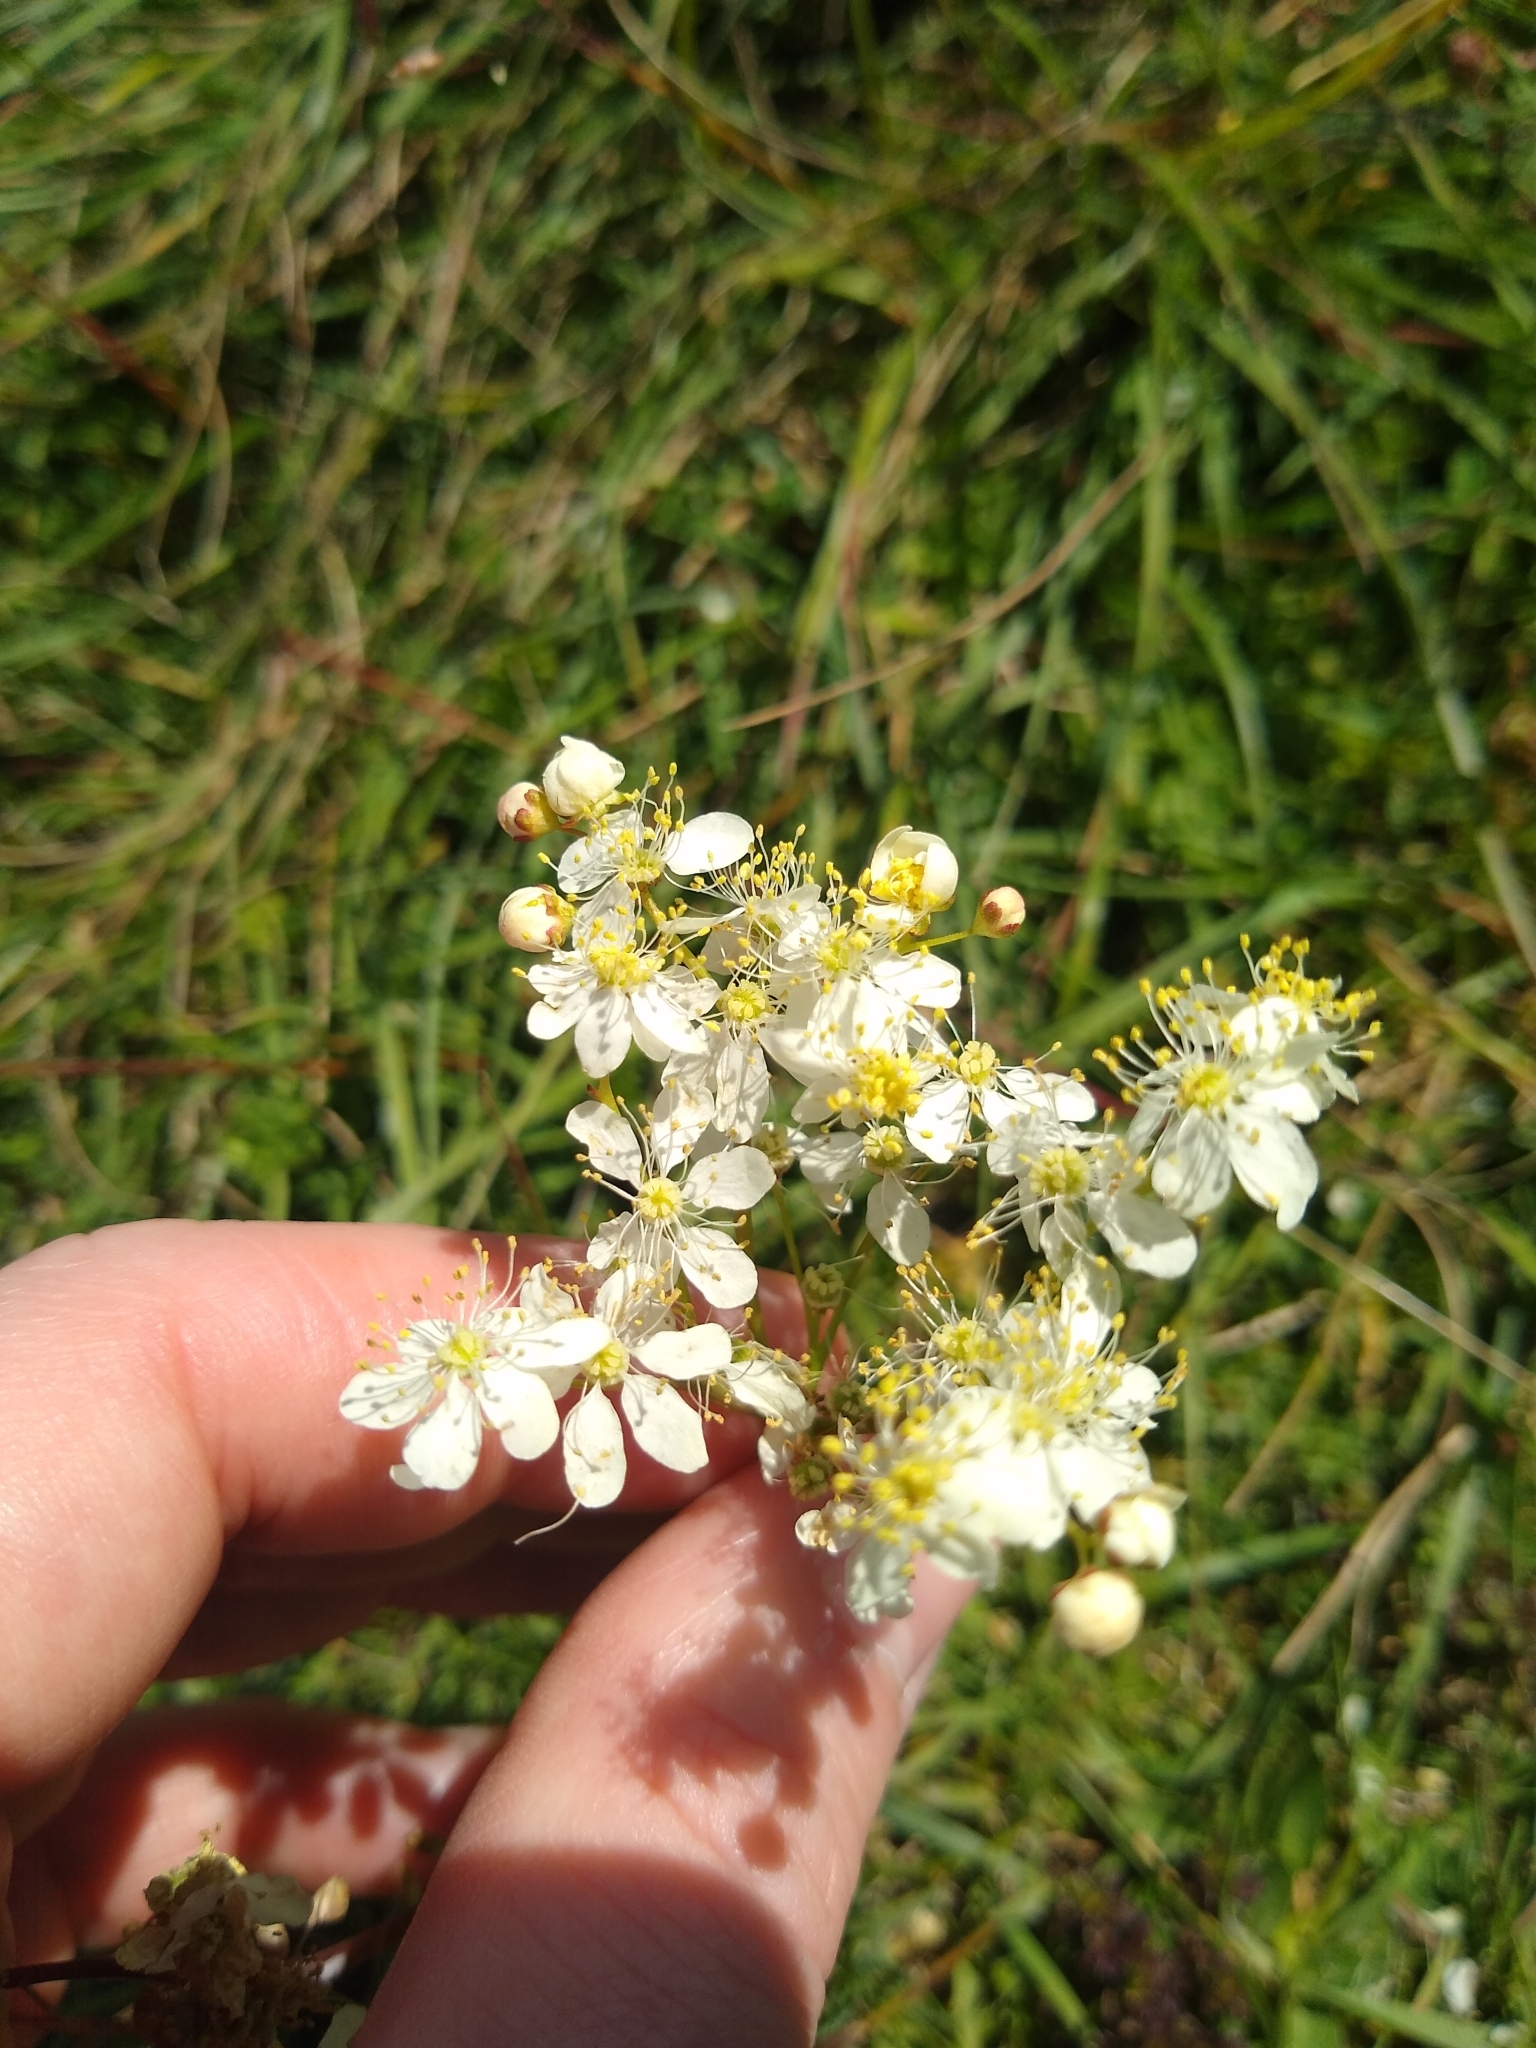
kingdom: Plantae
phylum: Tracheophyta
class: Magnoliopsida
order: Rosales
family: Rosaceae
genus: Filipendula
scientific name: Filipendula vulgaris
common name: Dropwort
